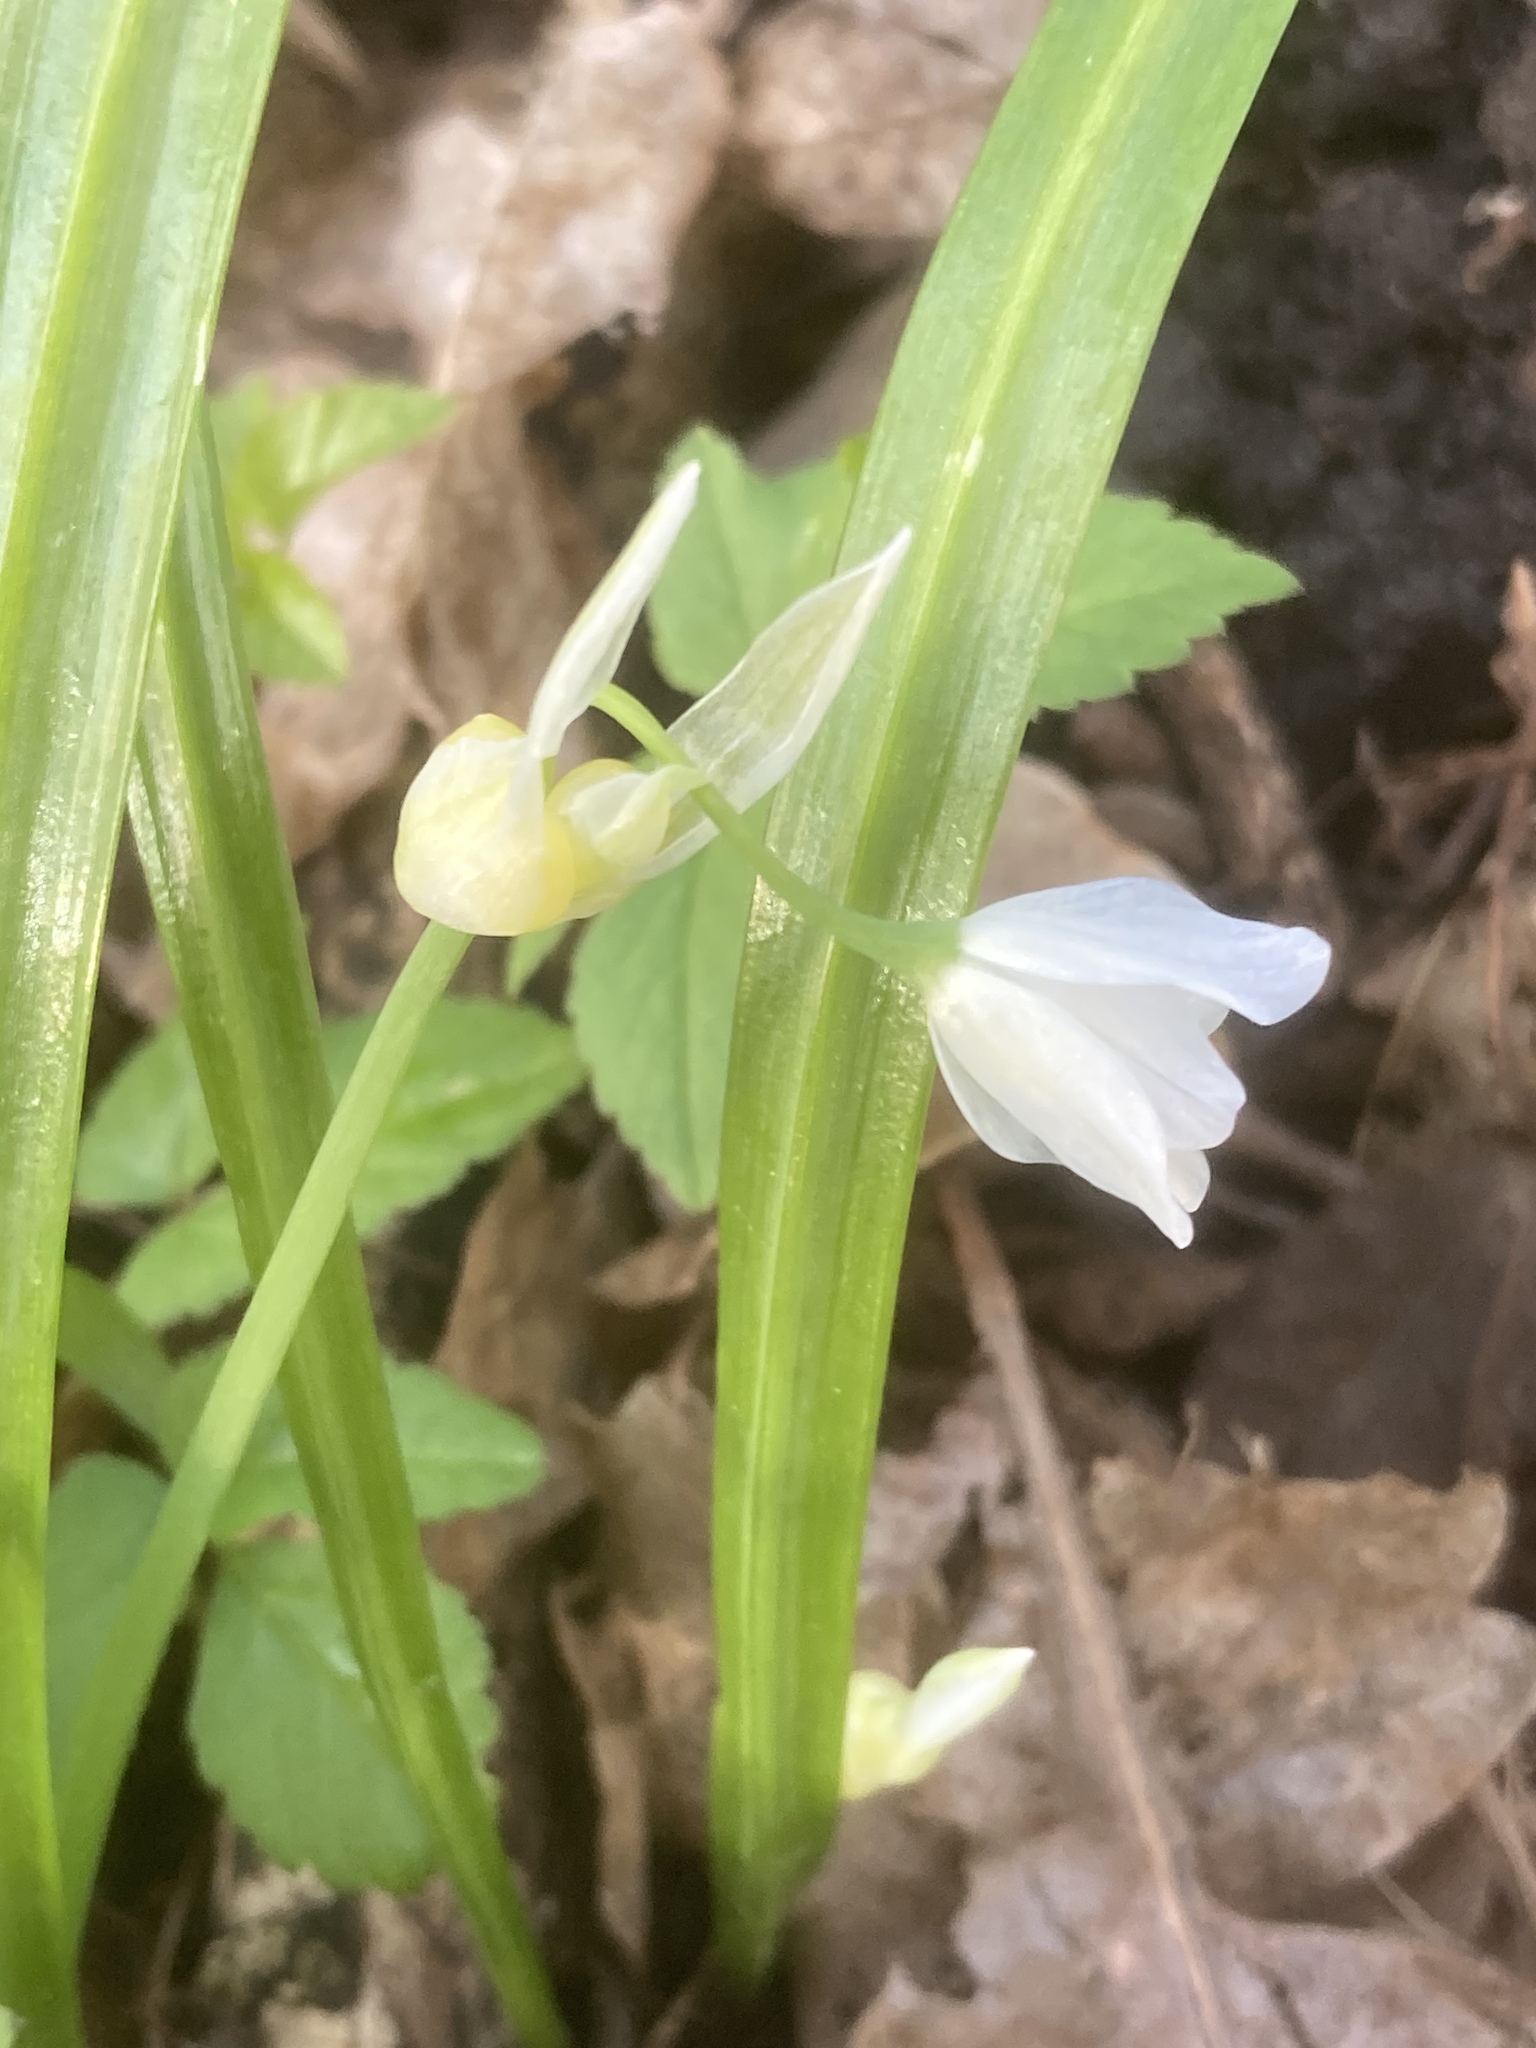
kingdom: Plantae
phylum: Tracheophyta
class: Liliopsida
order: Asparagales
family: Amaryllidaceae
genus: Allium
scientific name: Allium paradoxum
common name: Few-flowered garlic
